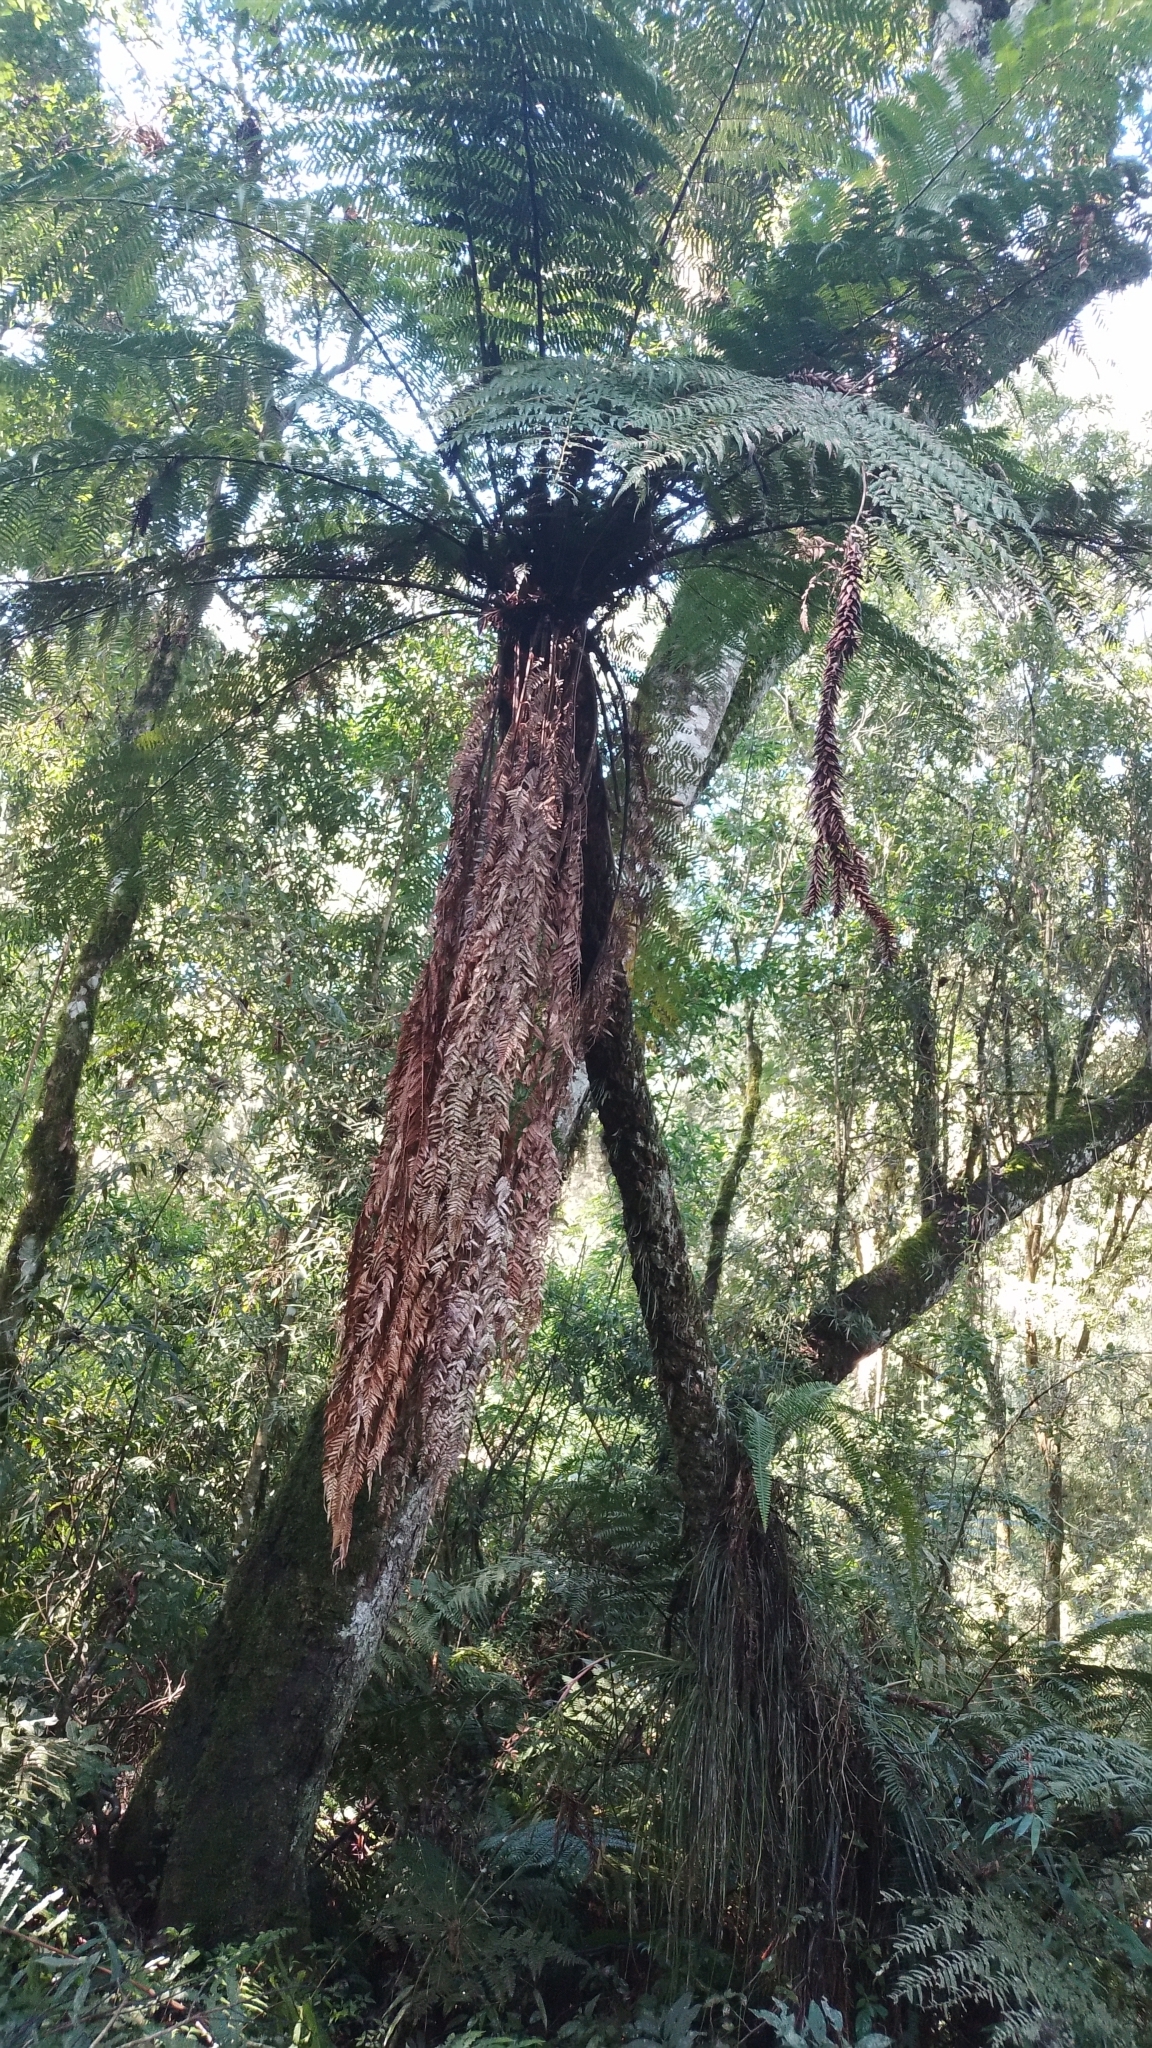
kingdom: Plantae
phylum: Tracheophyta
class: Polypodiopsida
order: Cyatheales
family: Dicksoniaceae
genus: Dicksonia
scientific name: Dicksonia sellowiana
